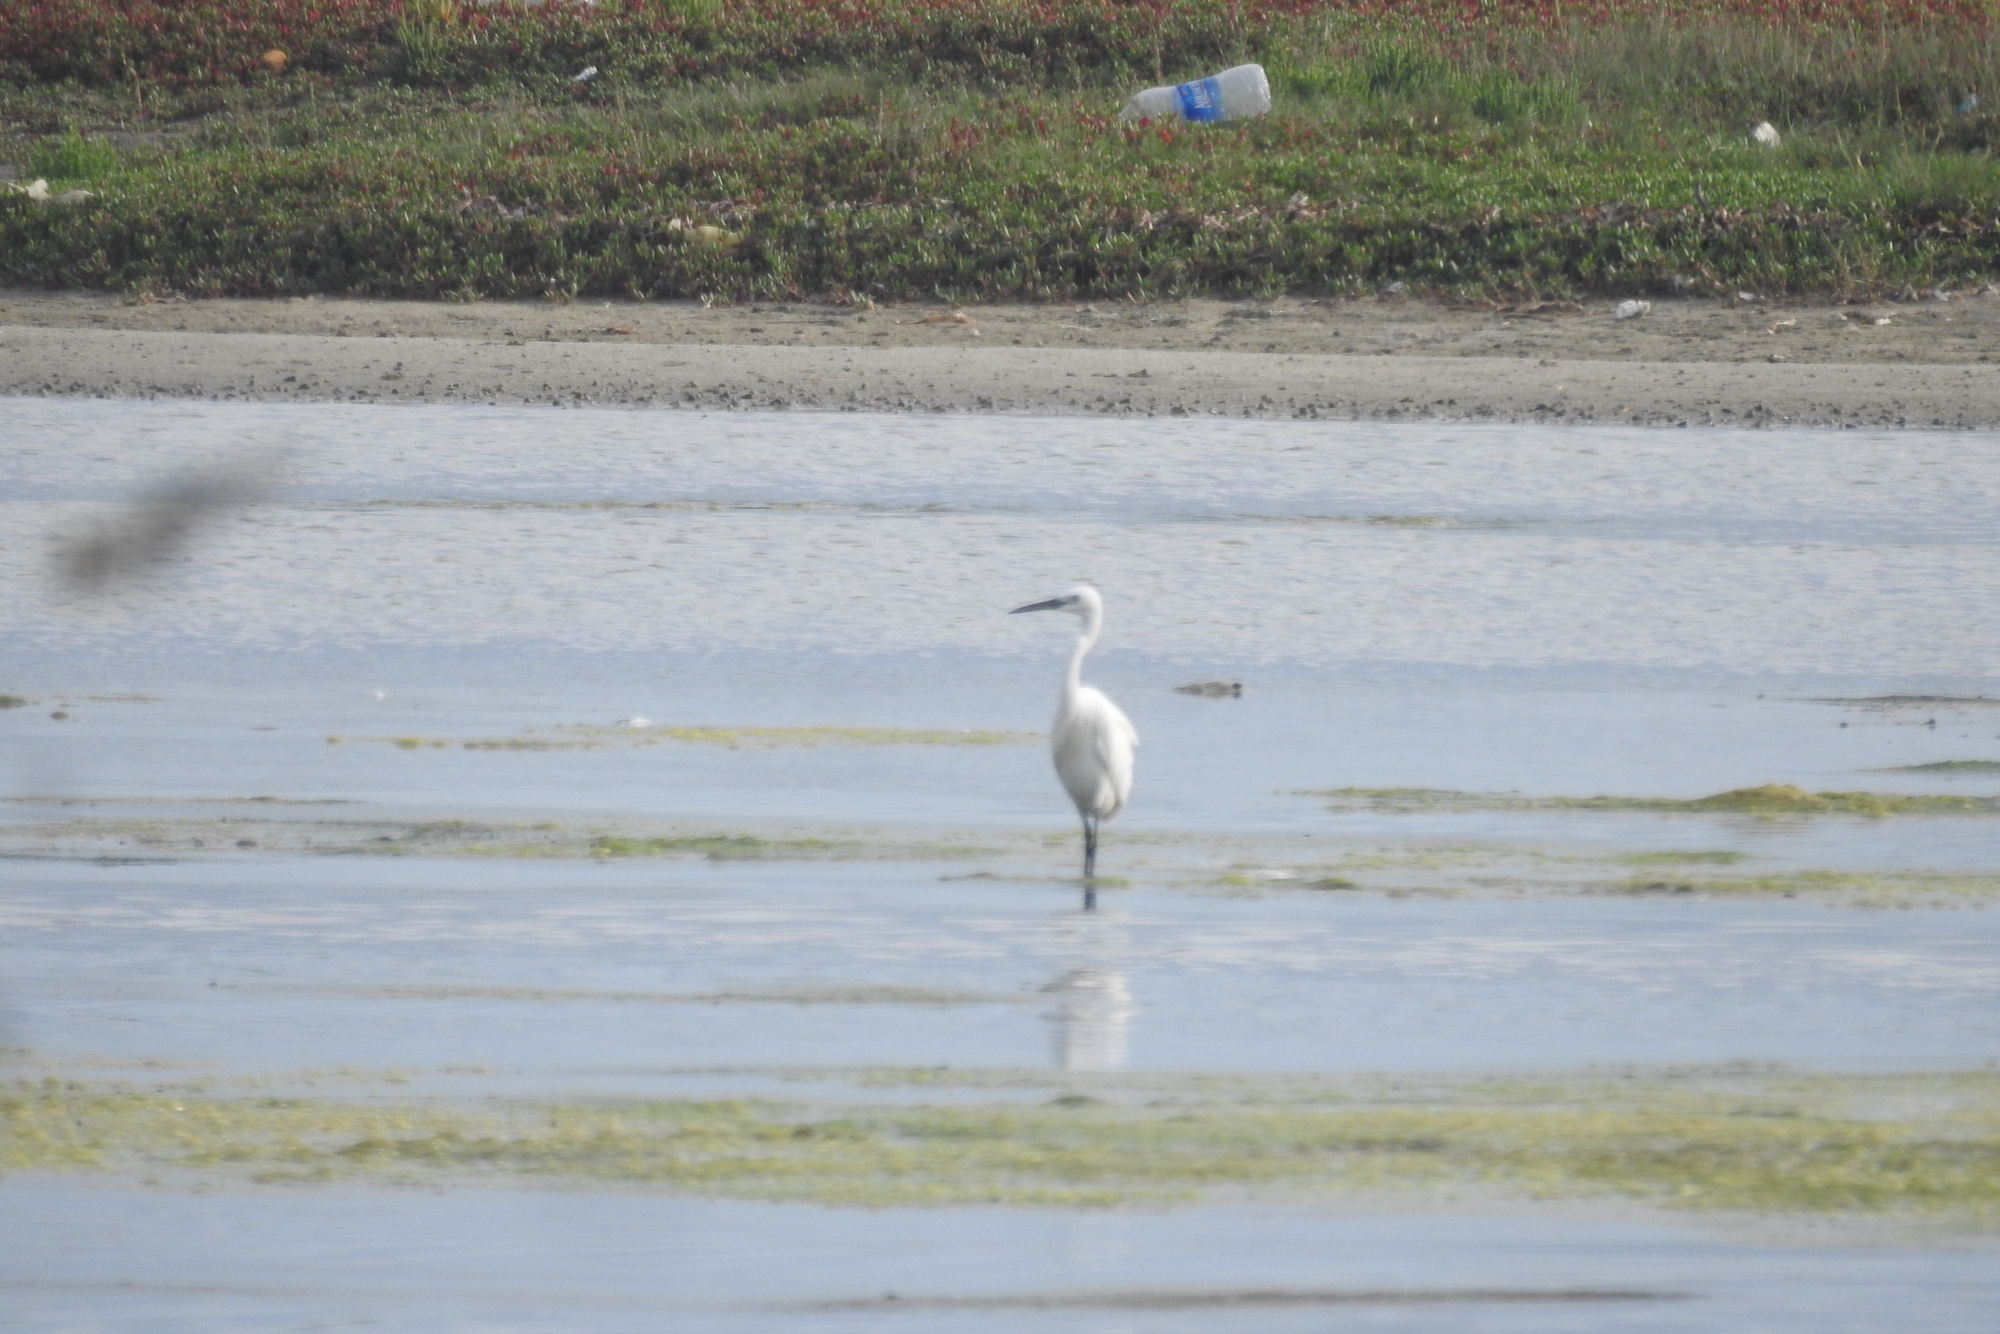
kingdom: Animalia
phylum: Chordata
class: Aves
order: Pelecaniformes
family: Ardeidae
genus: Egretta
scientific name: Egretta garzetta
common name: Little egret
